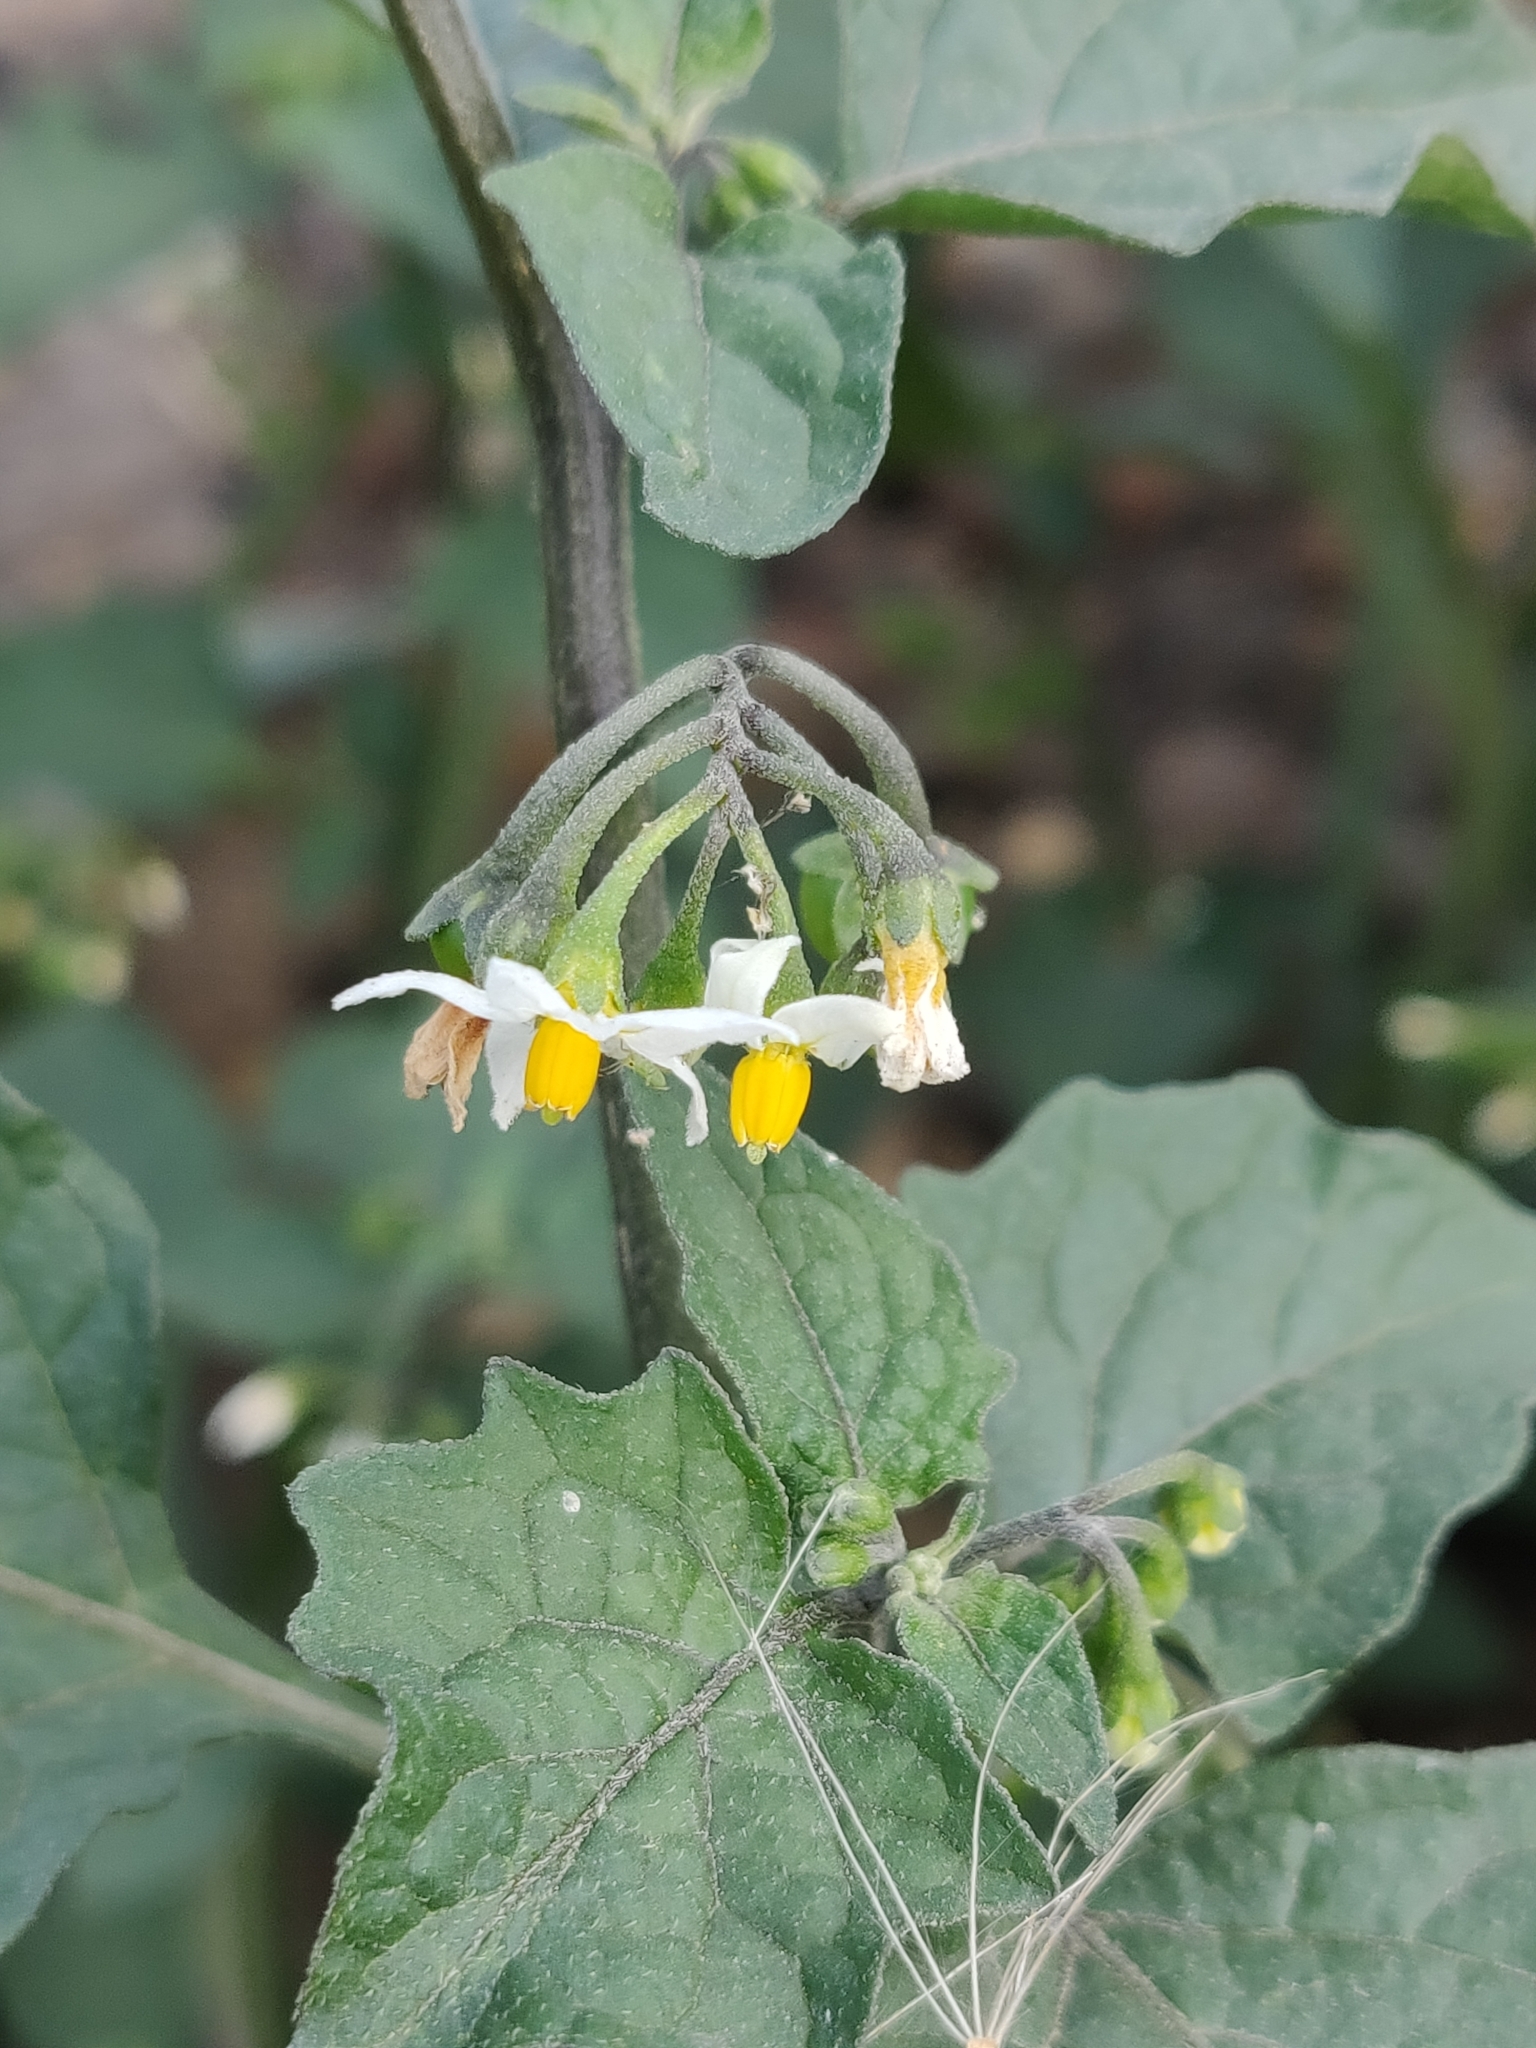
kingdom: Plantae
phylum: Tracheophyta
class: Magnoliopsida
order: Solanales
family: Solanaceae
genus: Solanum
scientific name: Solanum nigrum
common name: Black nightshade
